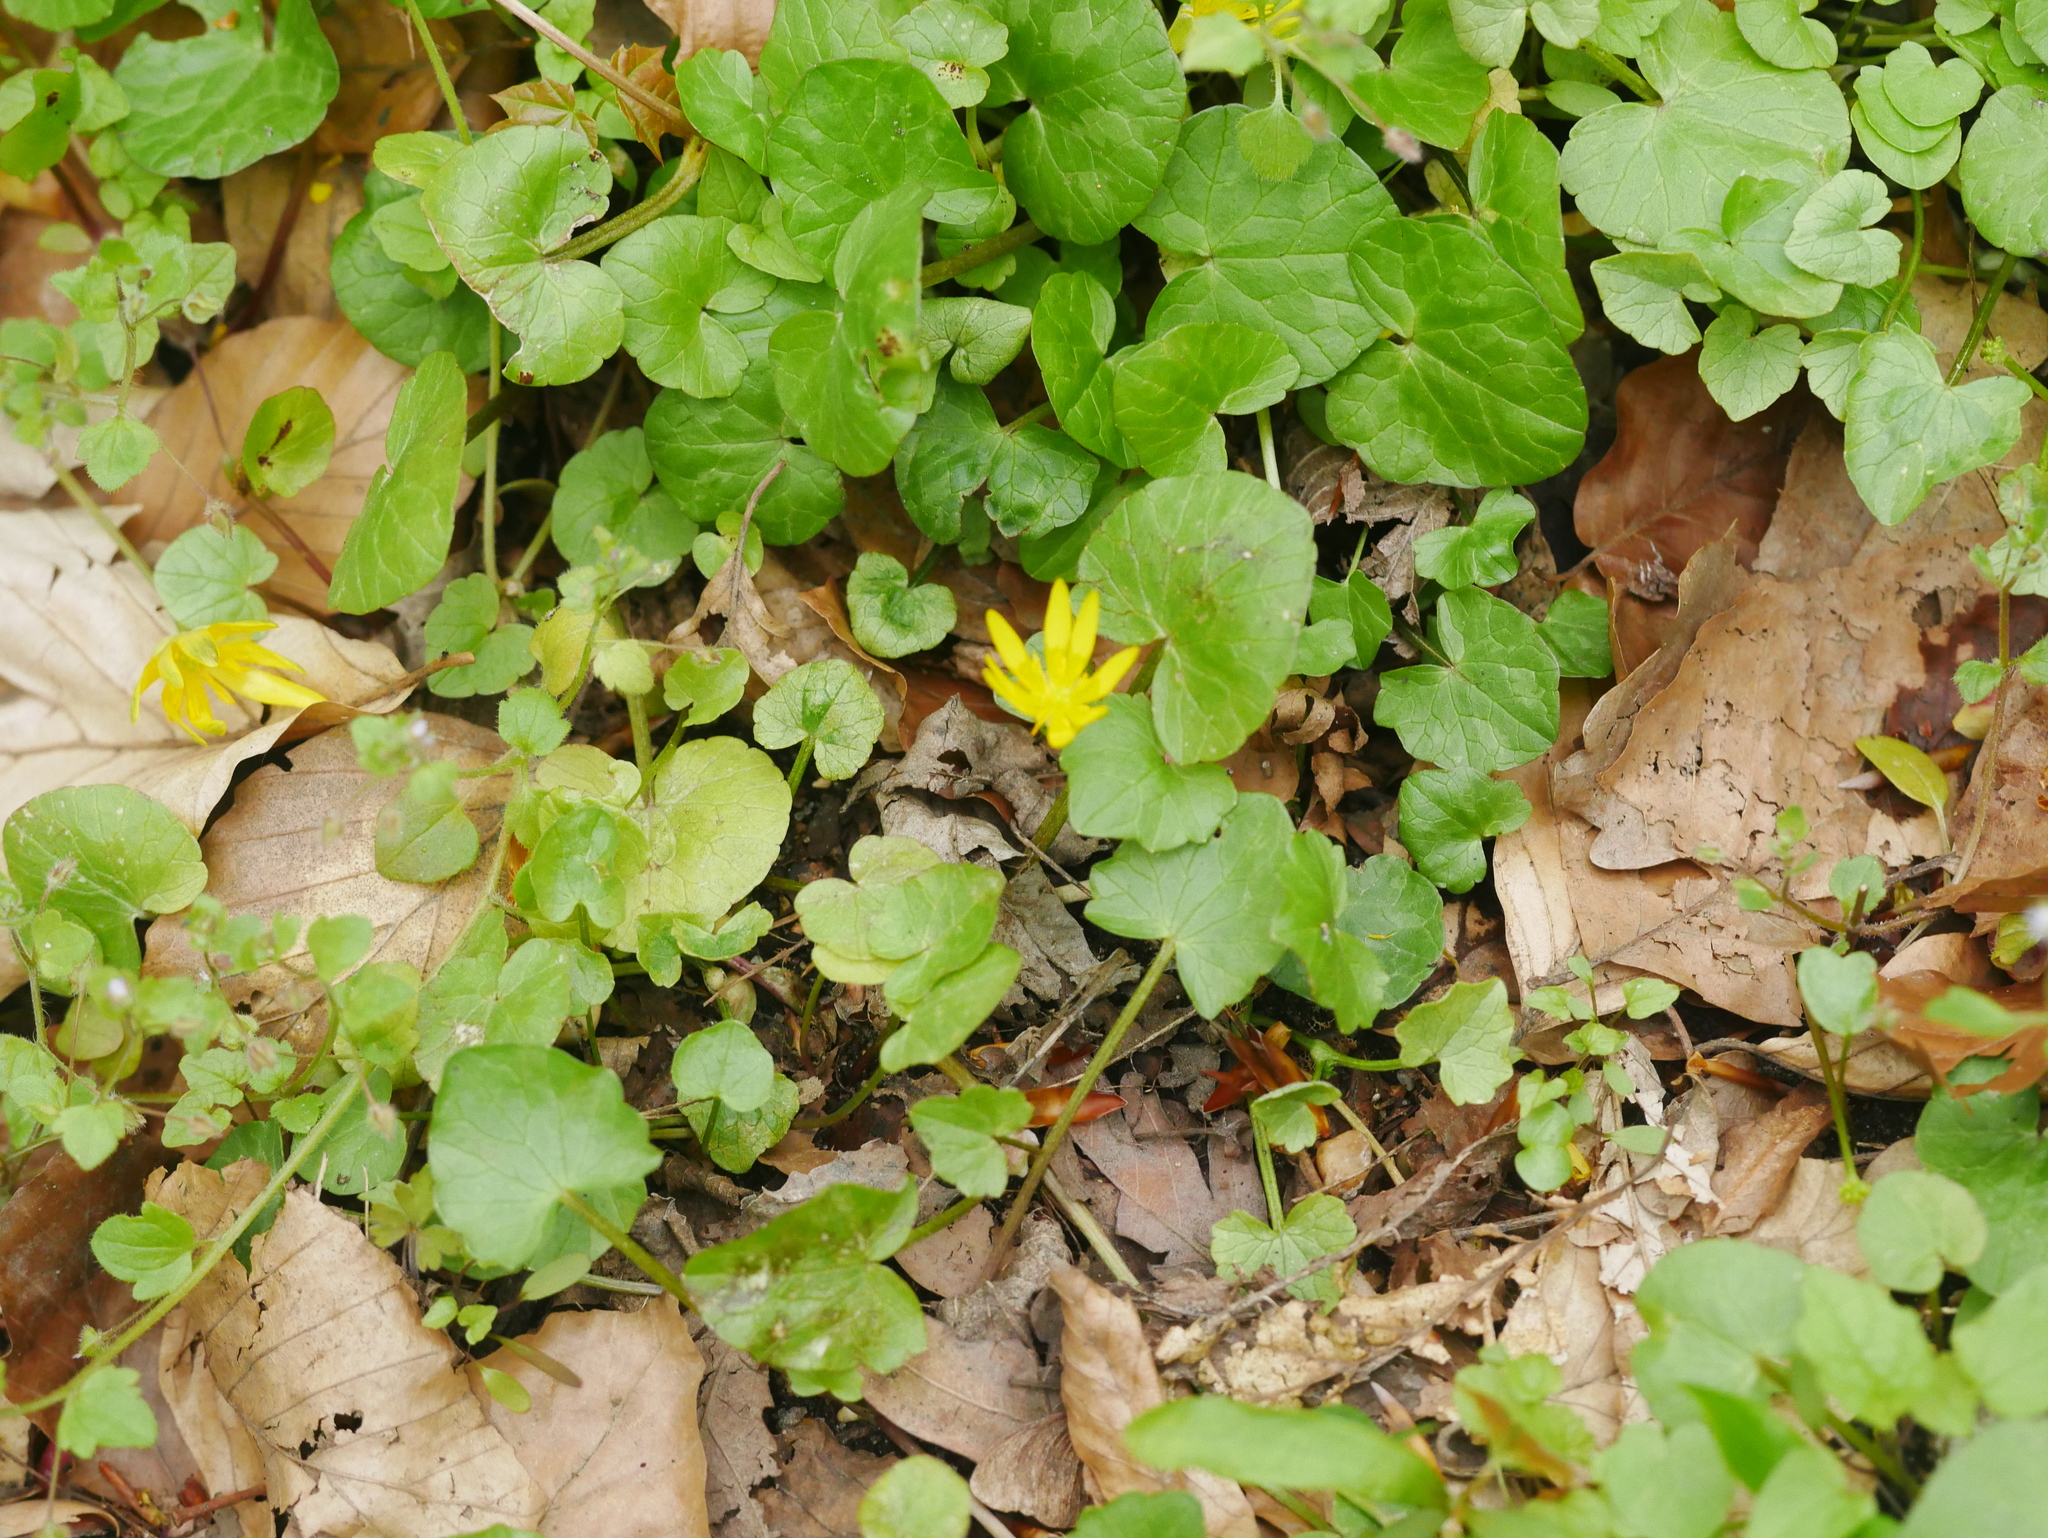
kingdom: Plantae
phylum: Tracheophyta
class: Magnoliopsida
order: Ranunculales
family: Ranunculaceae
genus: Ficaria
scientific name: Ficaria verna
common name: Lesser celandine
